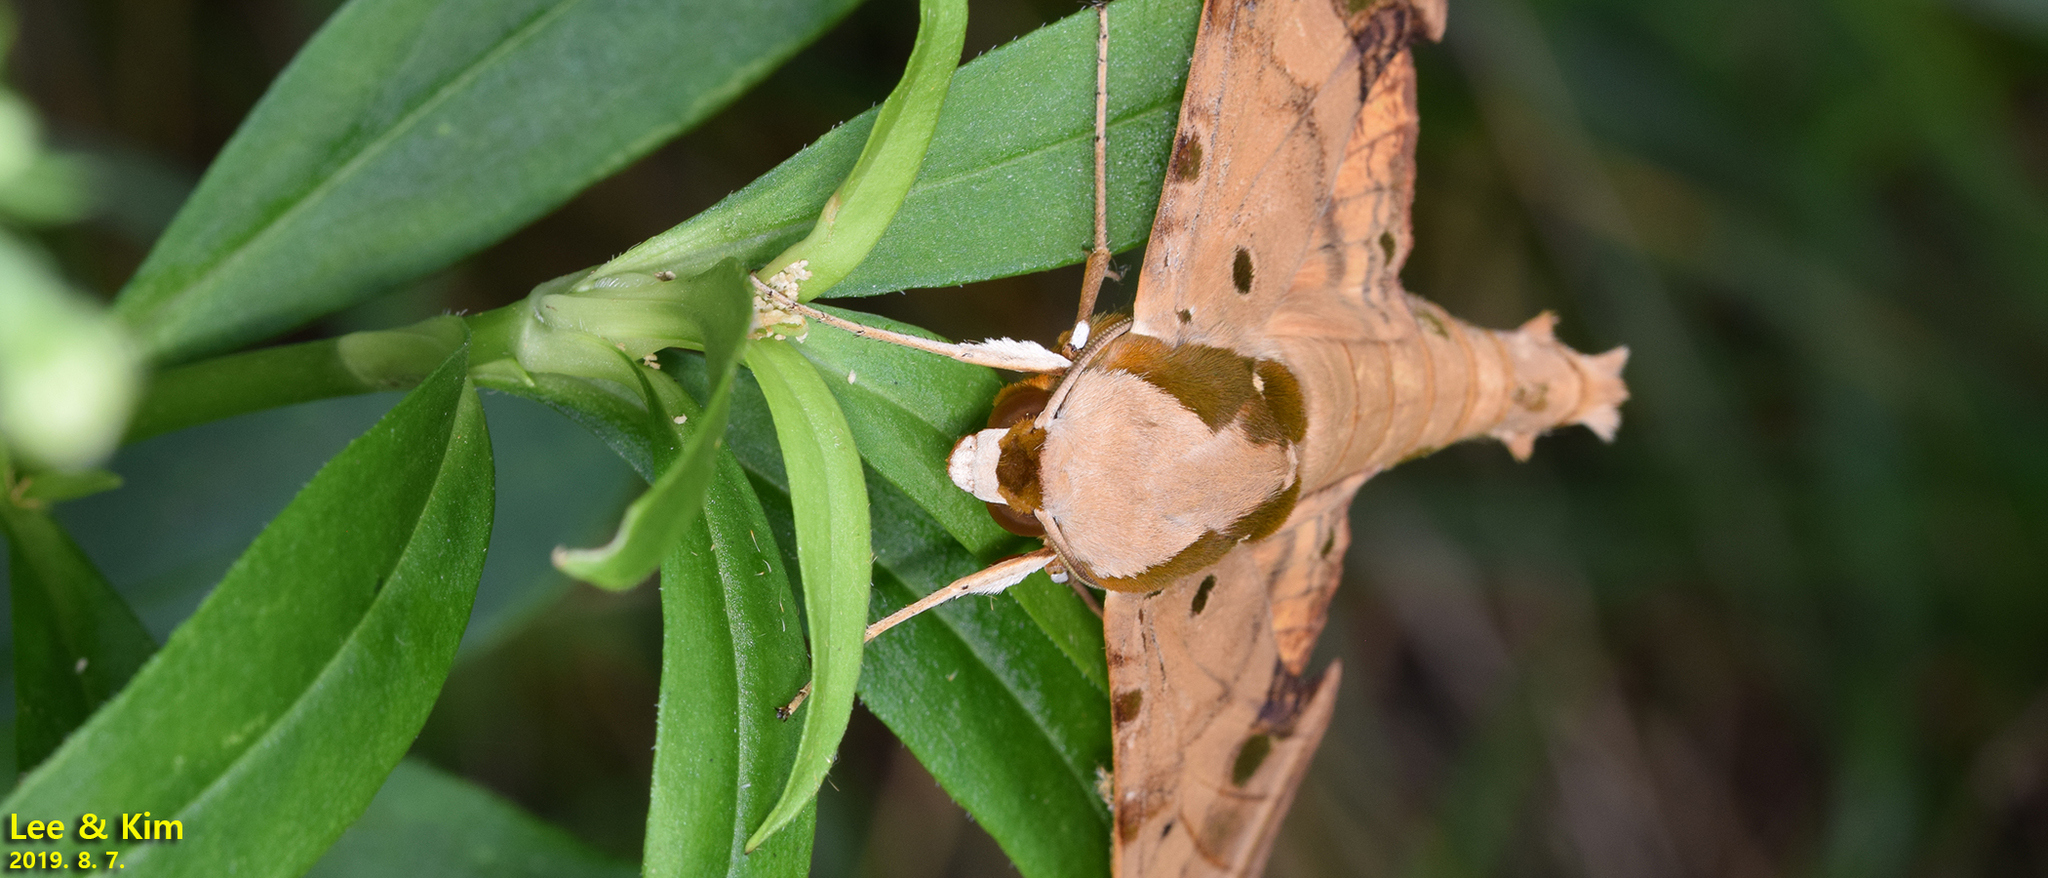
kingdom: Animalia
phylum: Arthropoda
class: Insecta
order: Lepidoptera
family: Sphingidae
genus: Ambulyx
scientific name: Ambulyx ochracea
